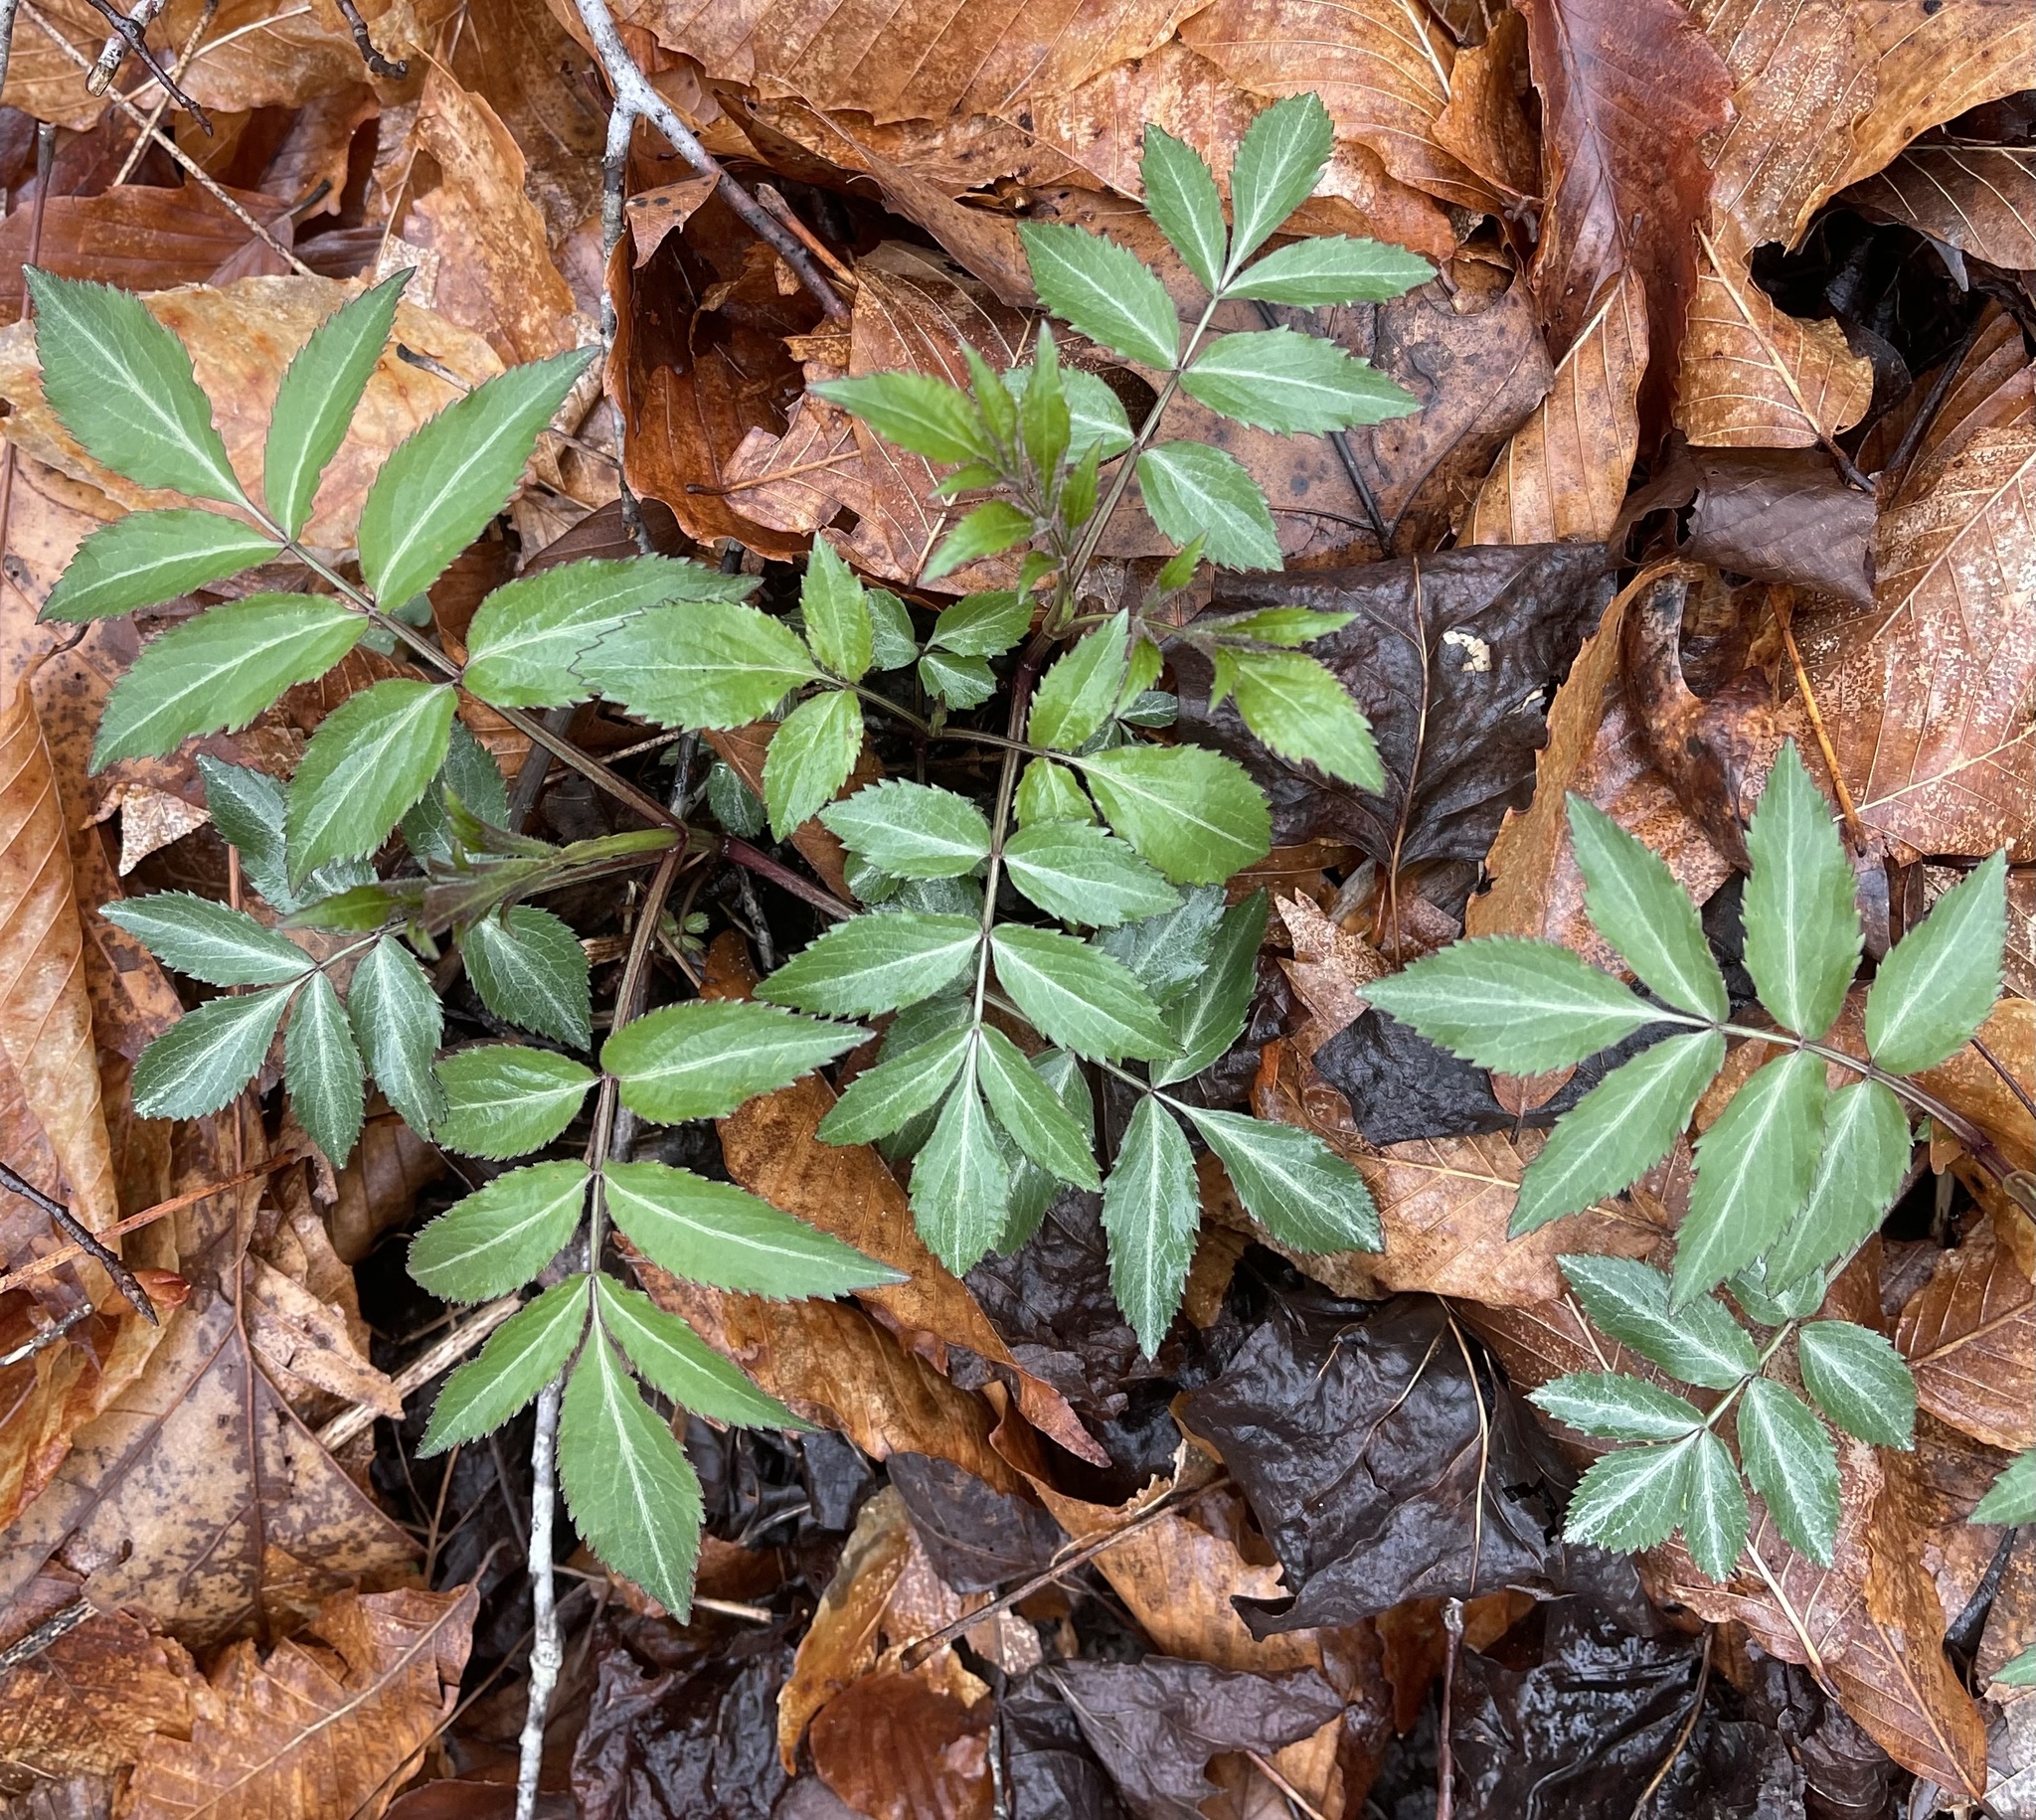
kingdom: Plantae
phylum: Tracheophyta
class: Magnoliopsida
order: Dipsacales
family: Viburnaceae
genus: Sambucus
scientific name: Sambucus canadensis
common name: American elder
